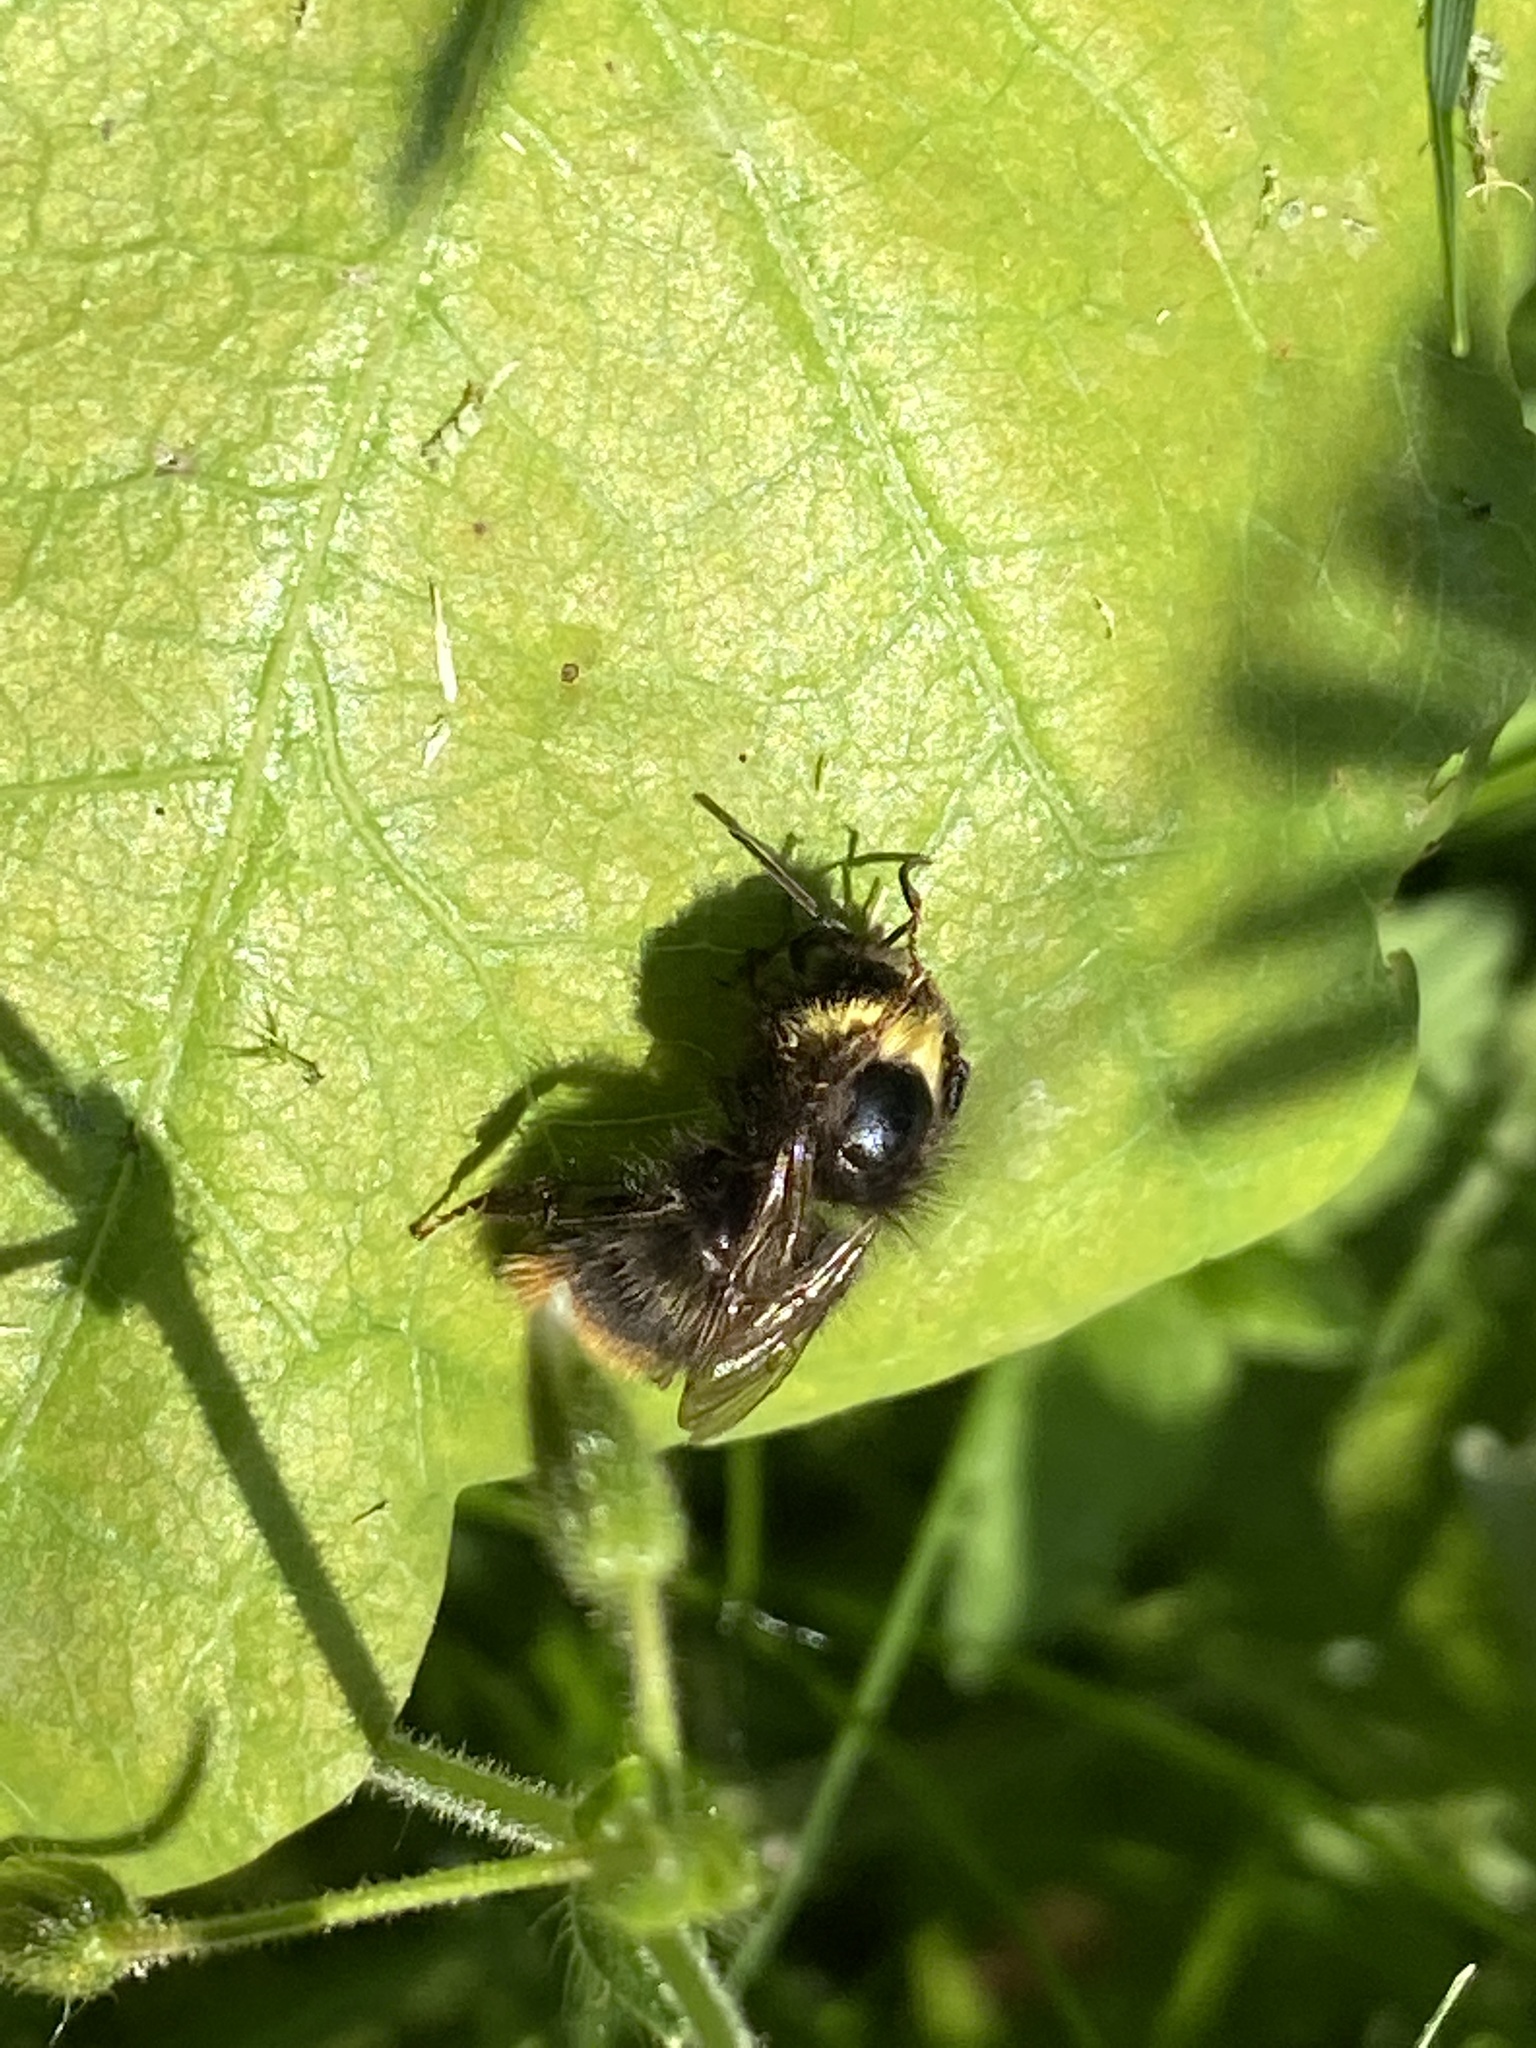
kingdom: Animalia
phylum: Arthropoda
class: Insecta
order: Hymenoptera
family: Apidae
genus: Bombus
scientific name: Bombus pratorum
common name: Early humble-bee
